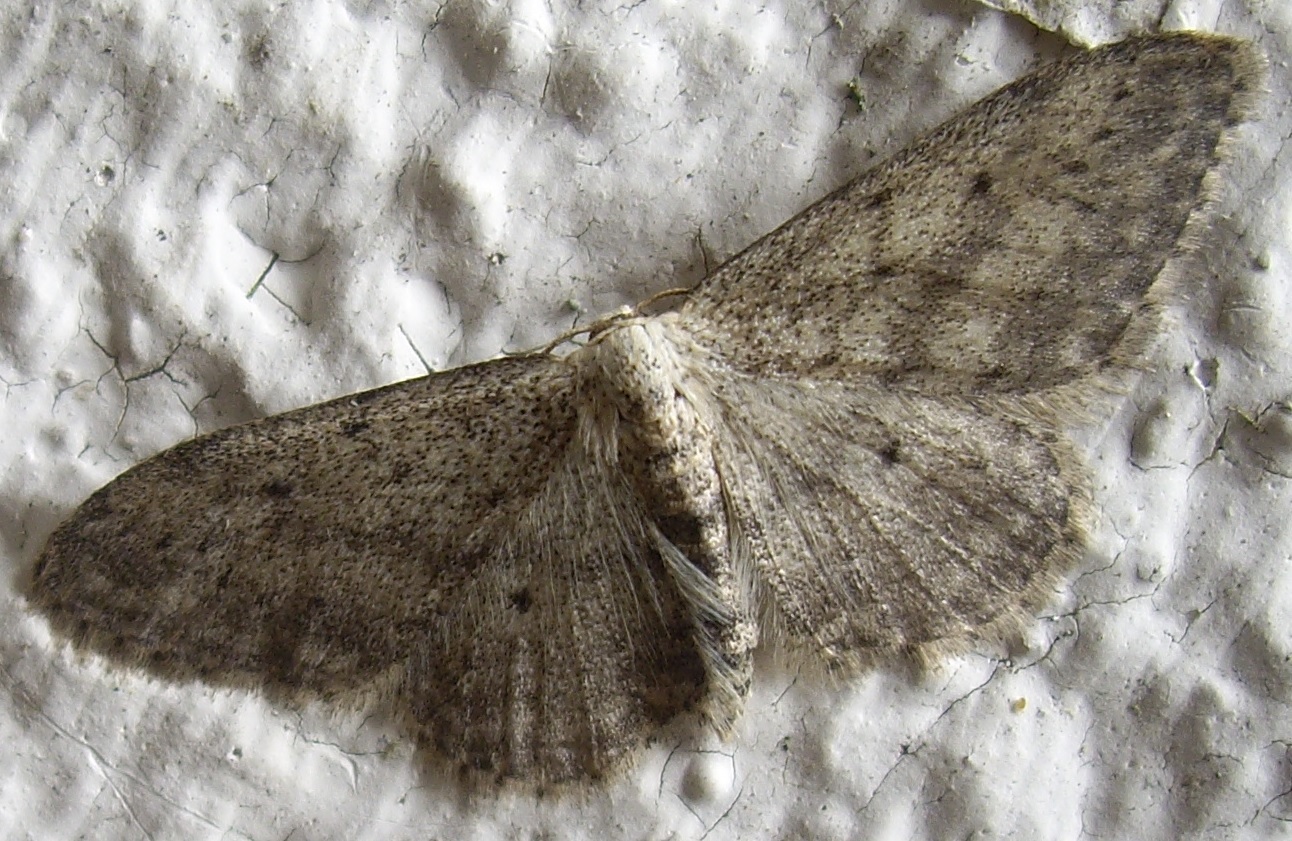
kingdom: Animalia
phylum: Arthropoda
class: Insecta
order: Lepidoptera
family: Geometridae
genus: Idaea
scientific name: Idaea seriata
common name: Small dusty wave
